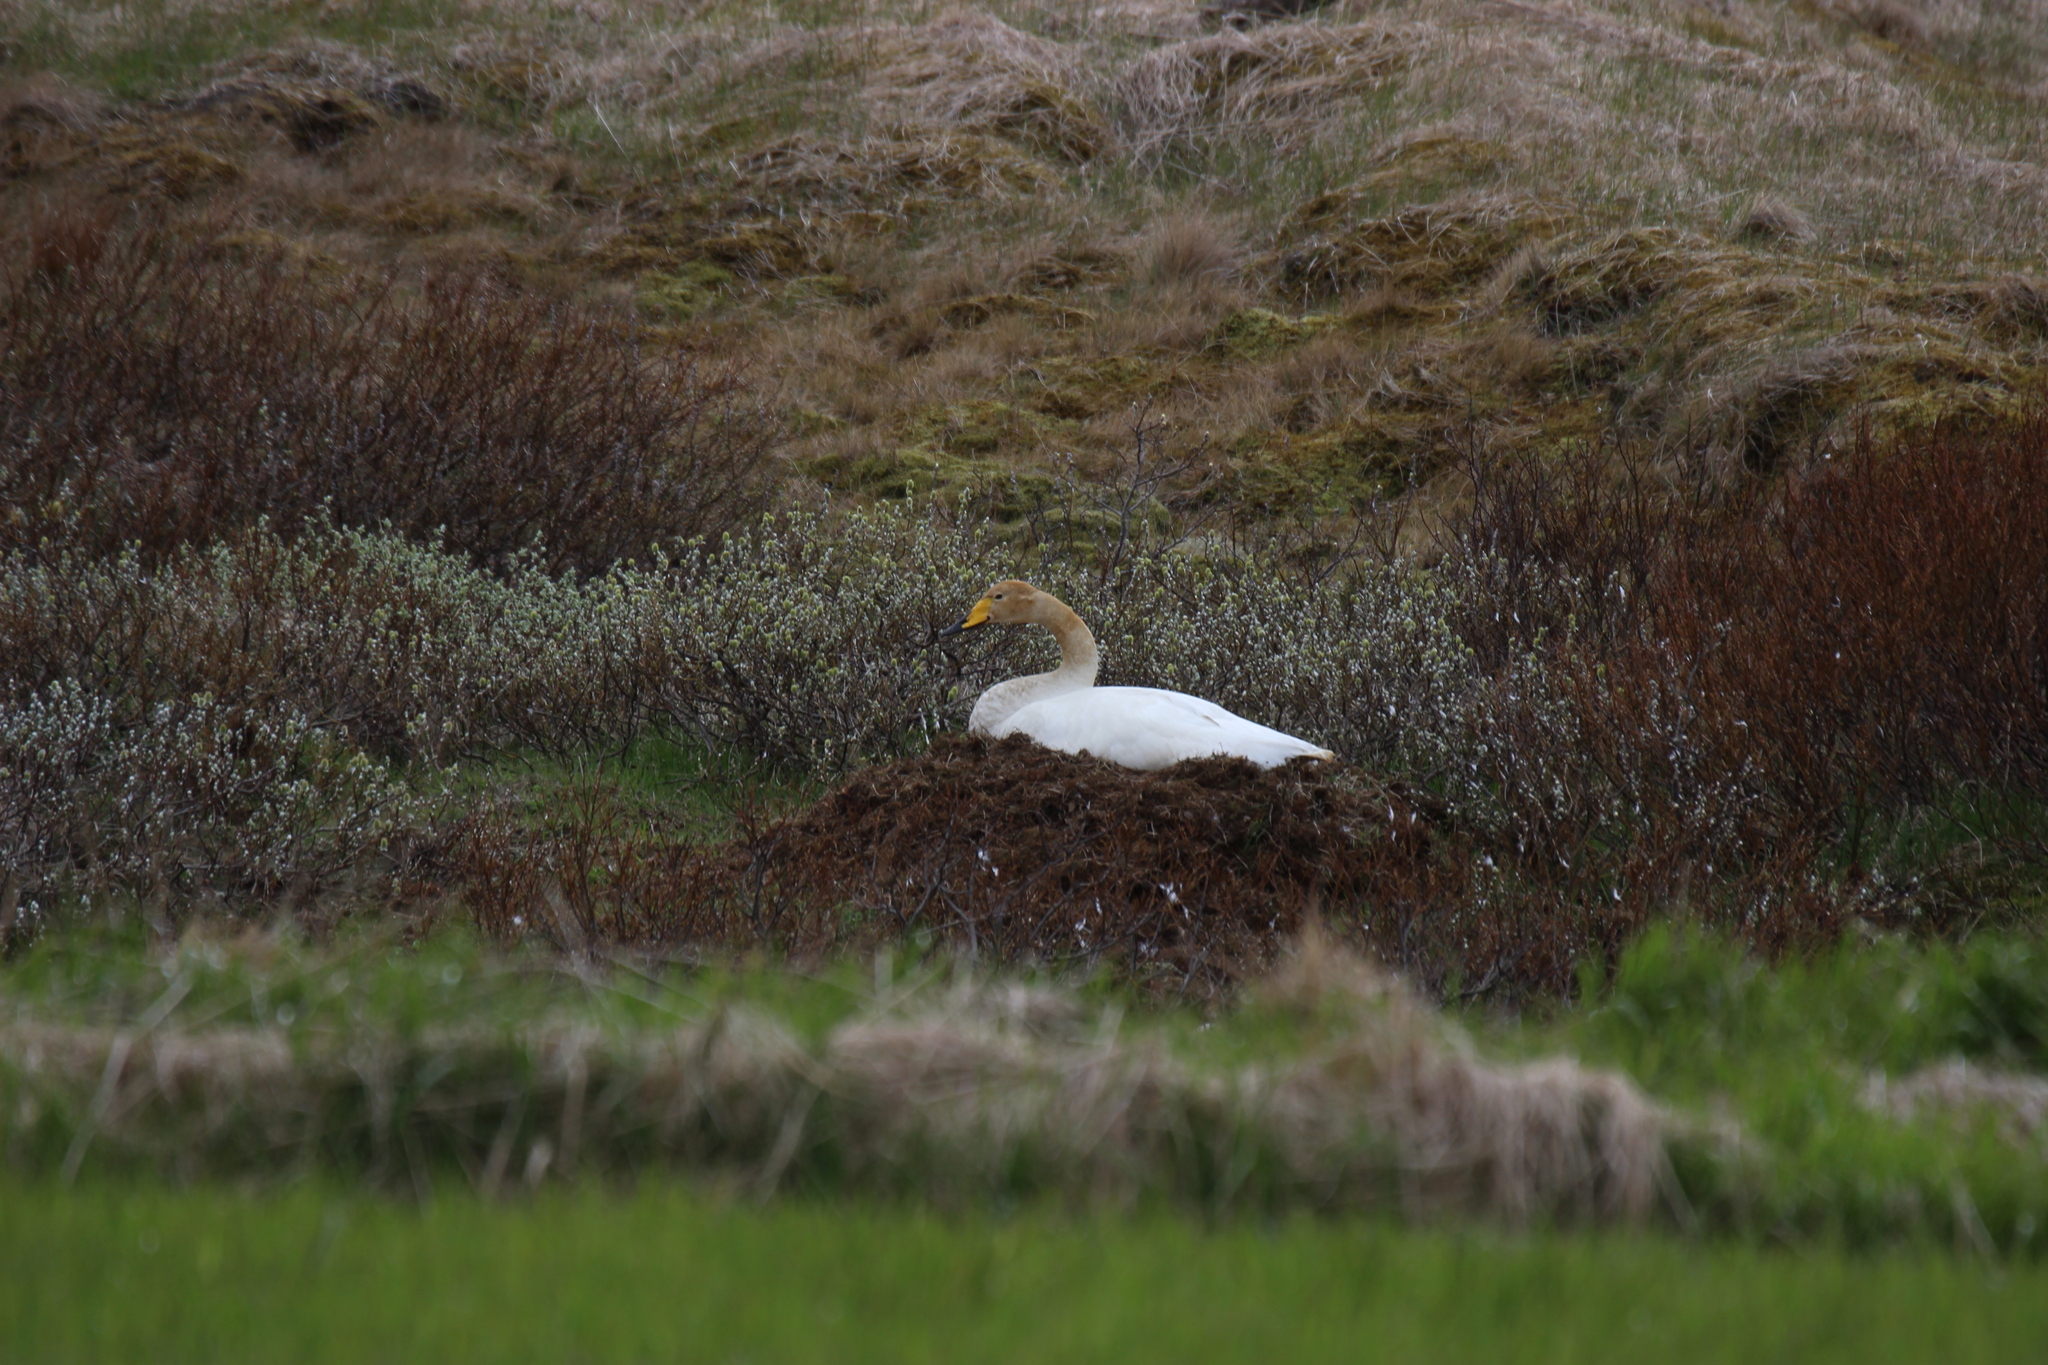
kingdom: Animalia
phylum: Chordata
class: Aves
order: Anseriformes
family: Anatidae
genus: Cygnus
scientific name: Cygnus cygnus
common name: Whooper swan
